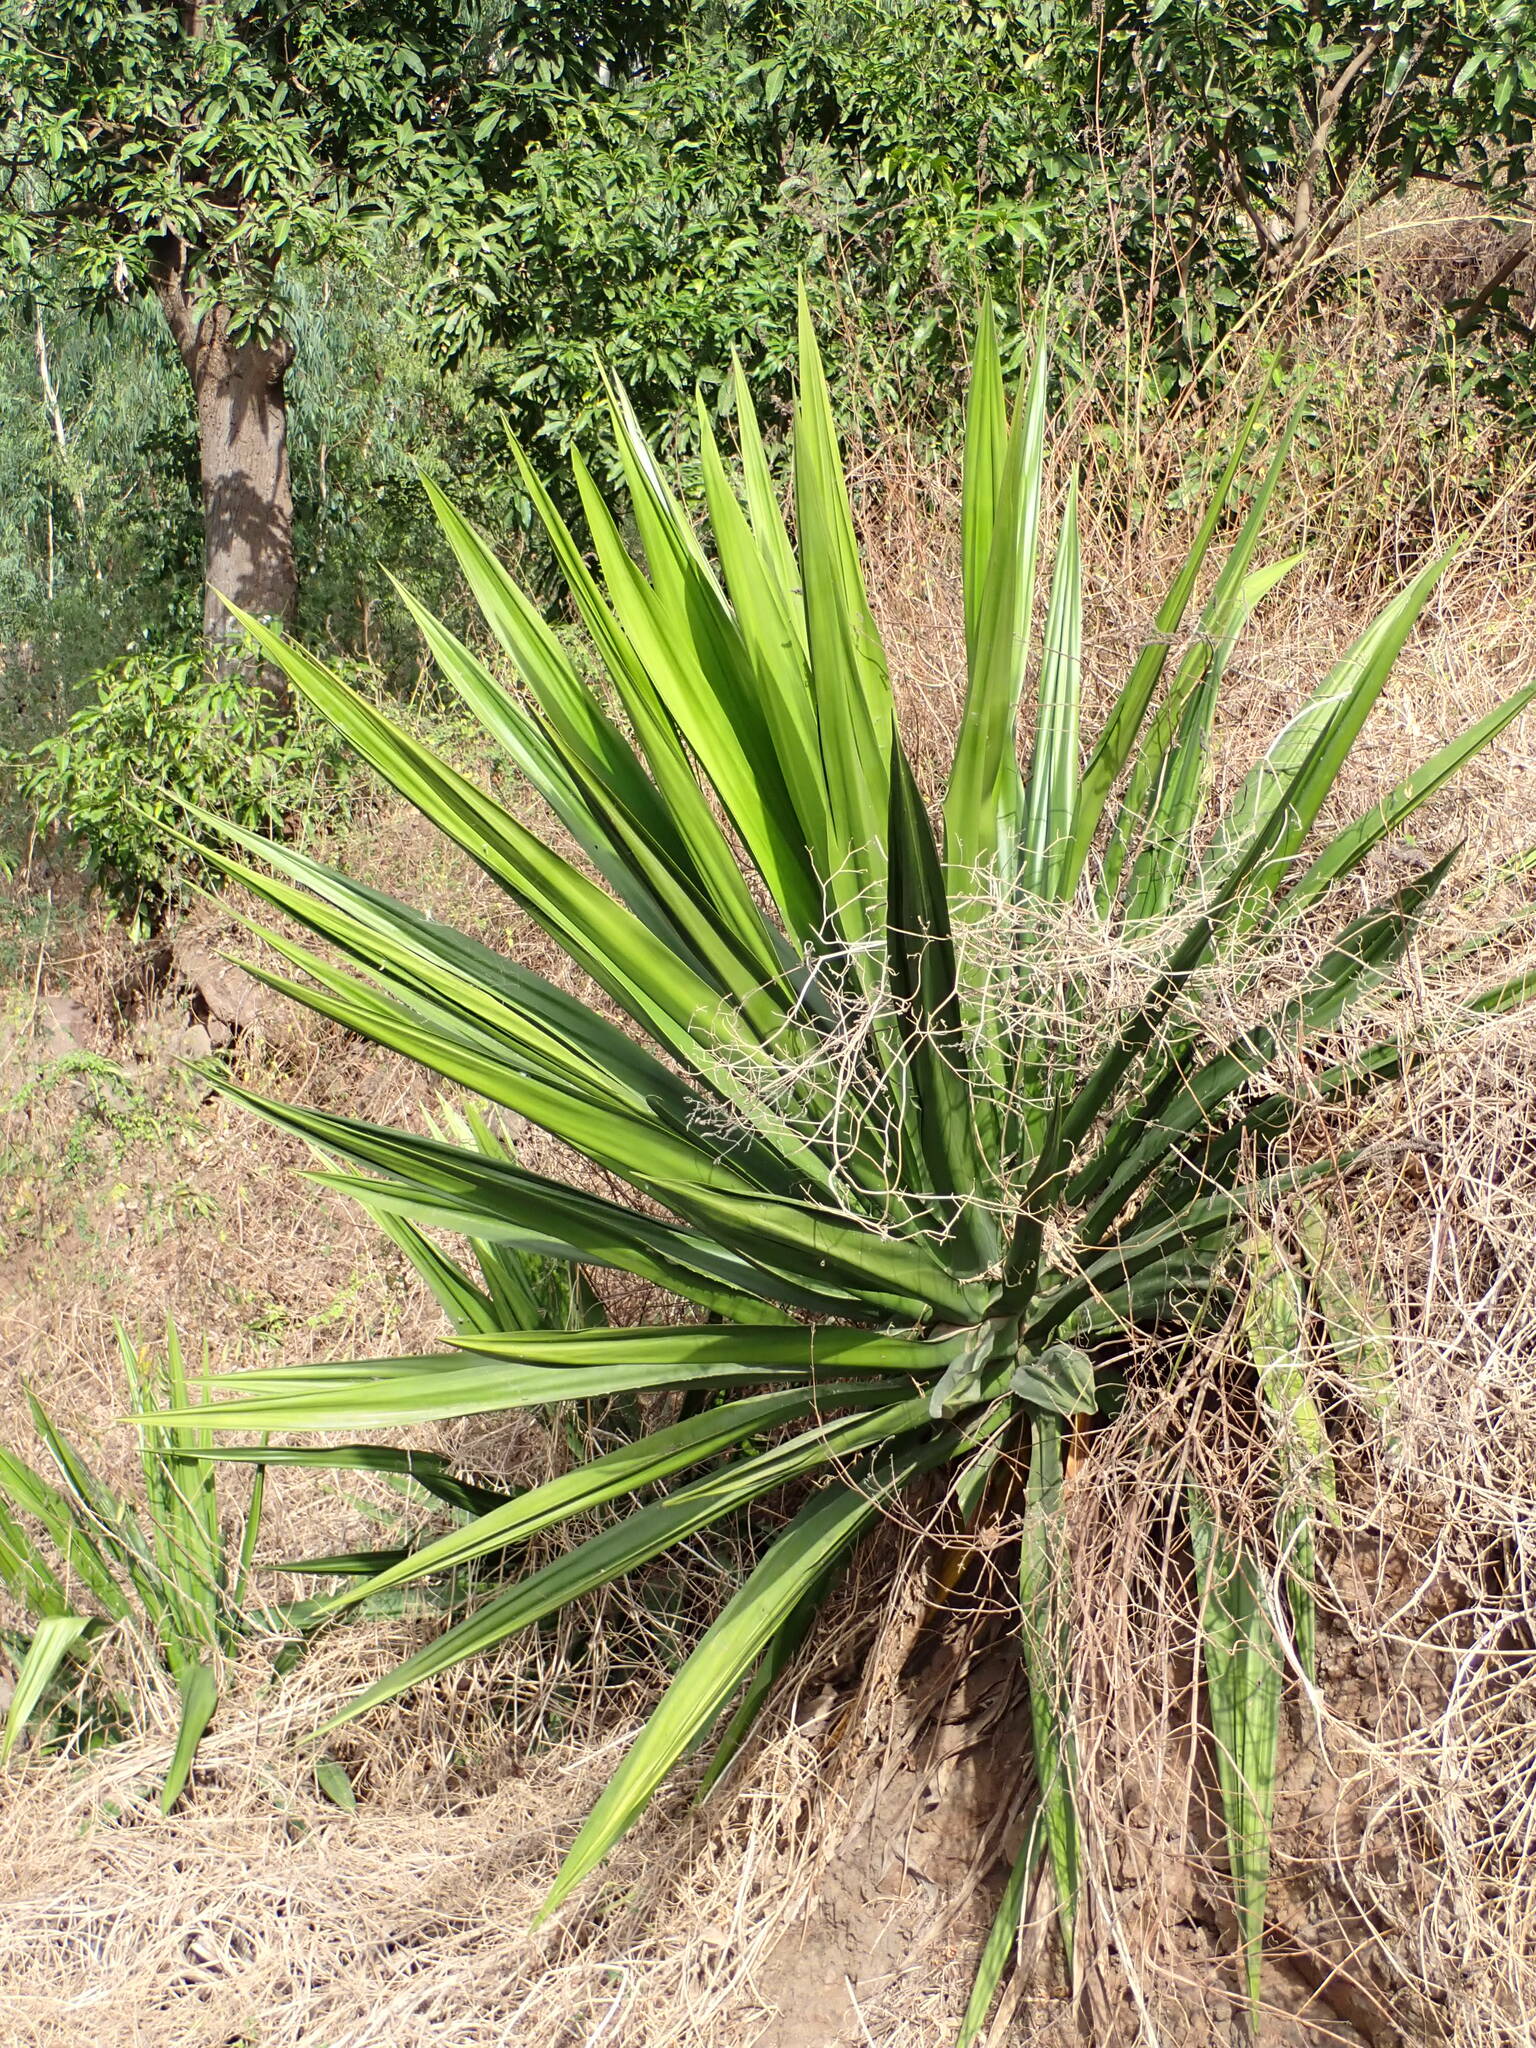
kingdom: Plantae
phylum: Tracheophyta
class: Liliopsida
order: Asparagales
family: Asparagaceae
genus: Furcraea
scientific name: Furcraea foetida
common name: Mauritius hemp
